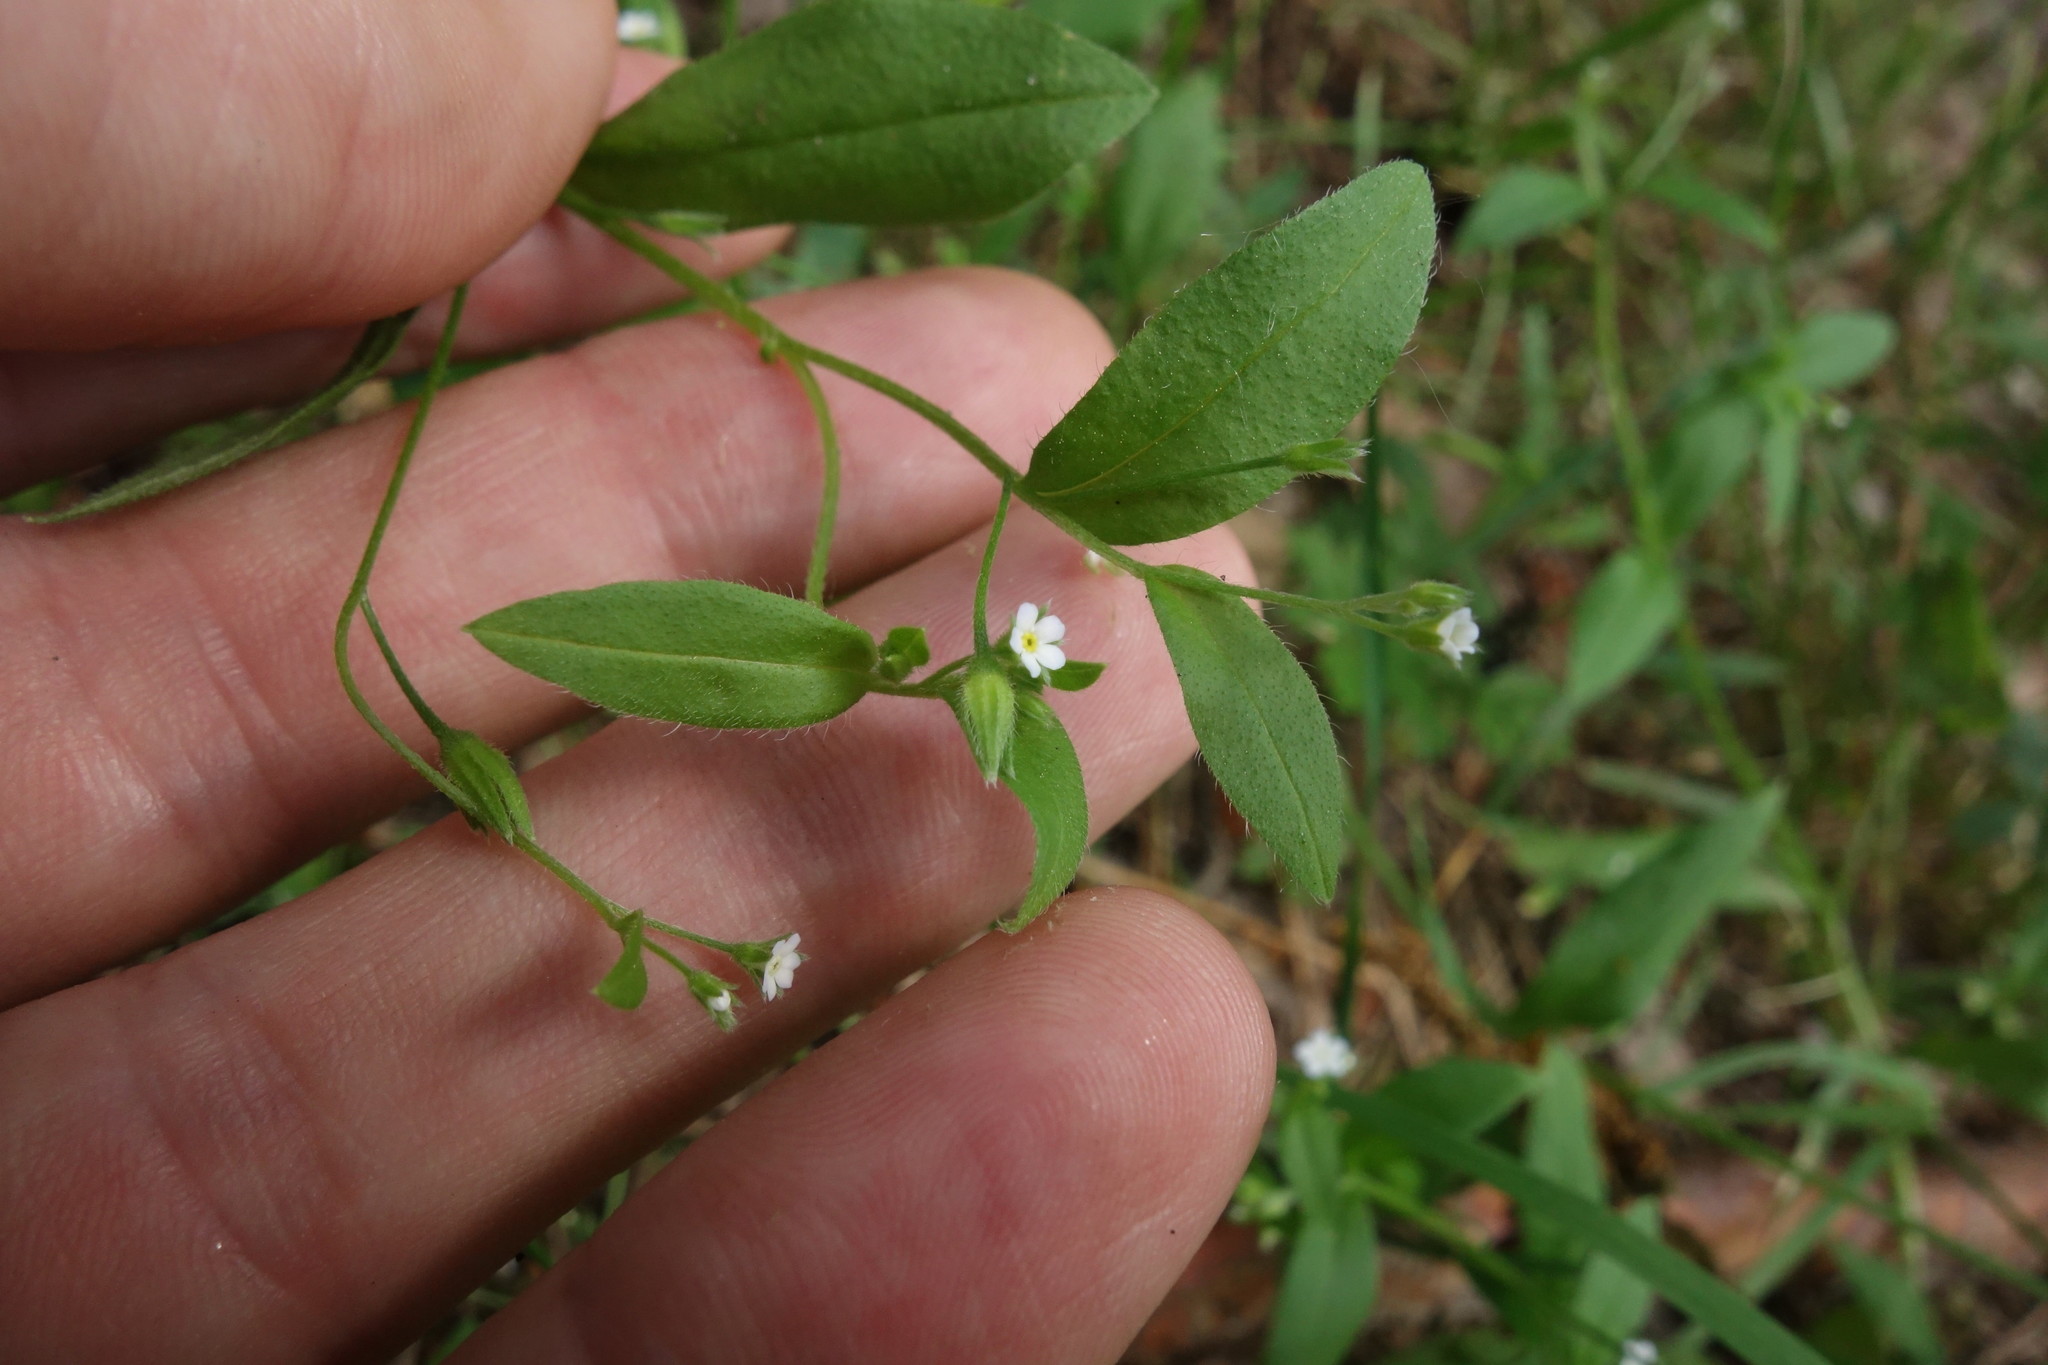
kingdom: Plantae
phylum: Tracheophyta
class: Magnoliopsida
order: Boraginales
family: Boraginaceae
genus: Myosotis
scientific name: Myosotis sparsiflora
